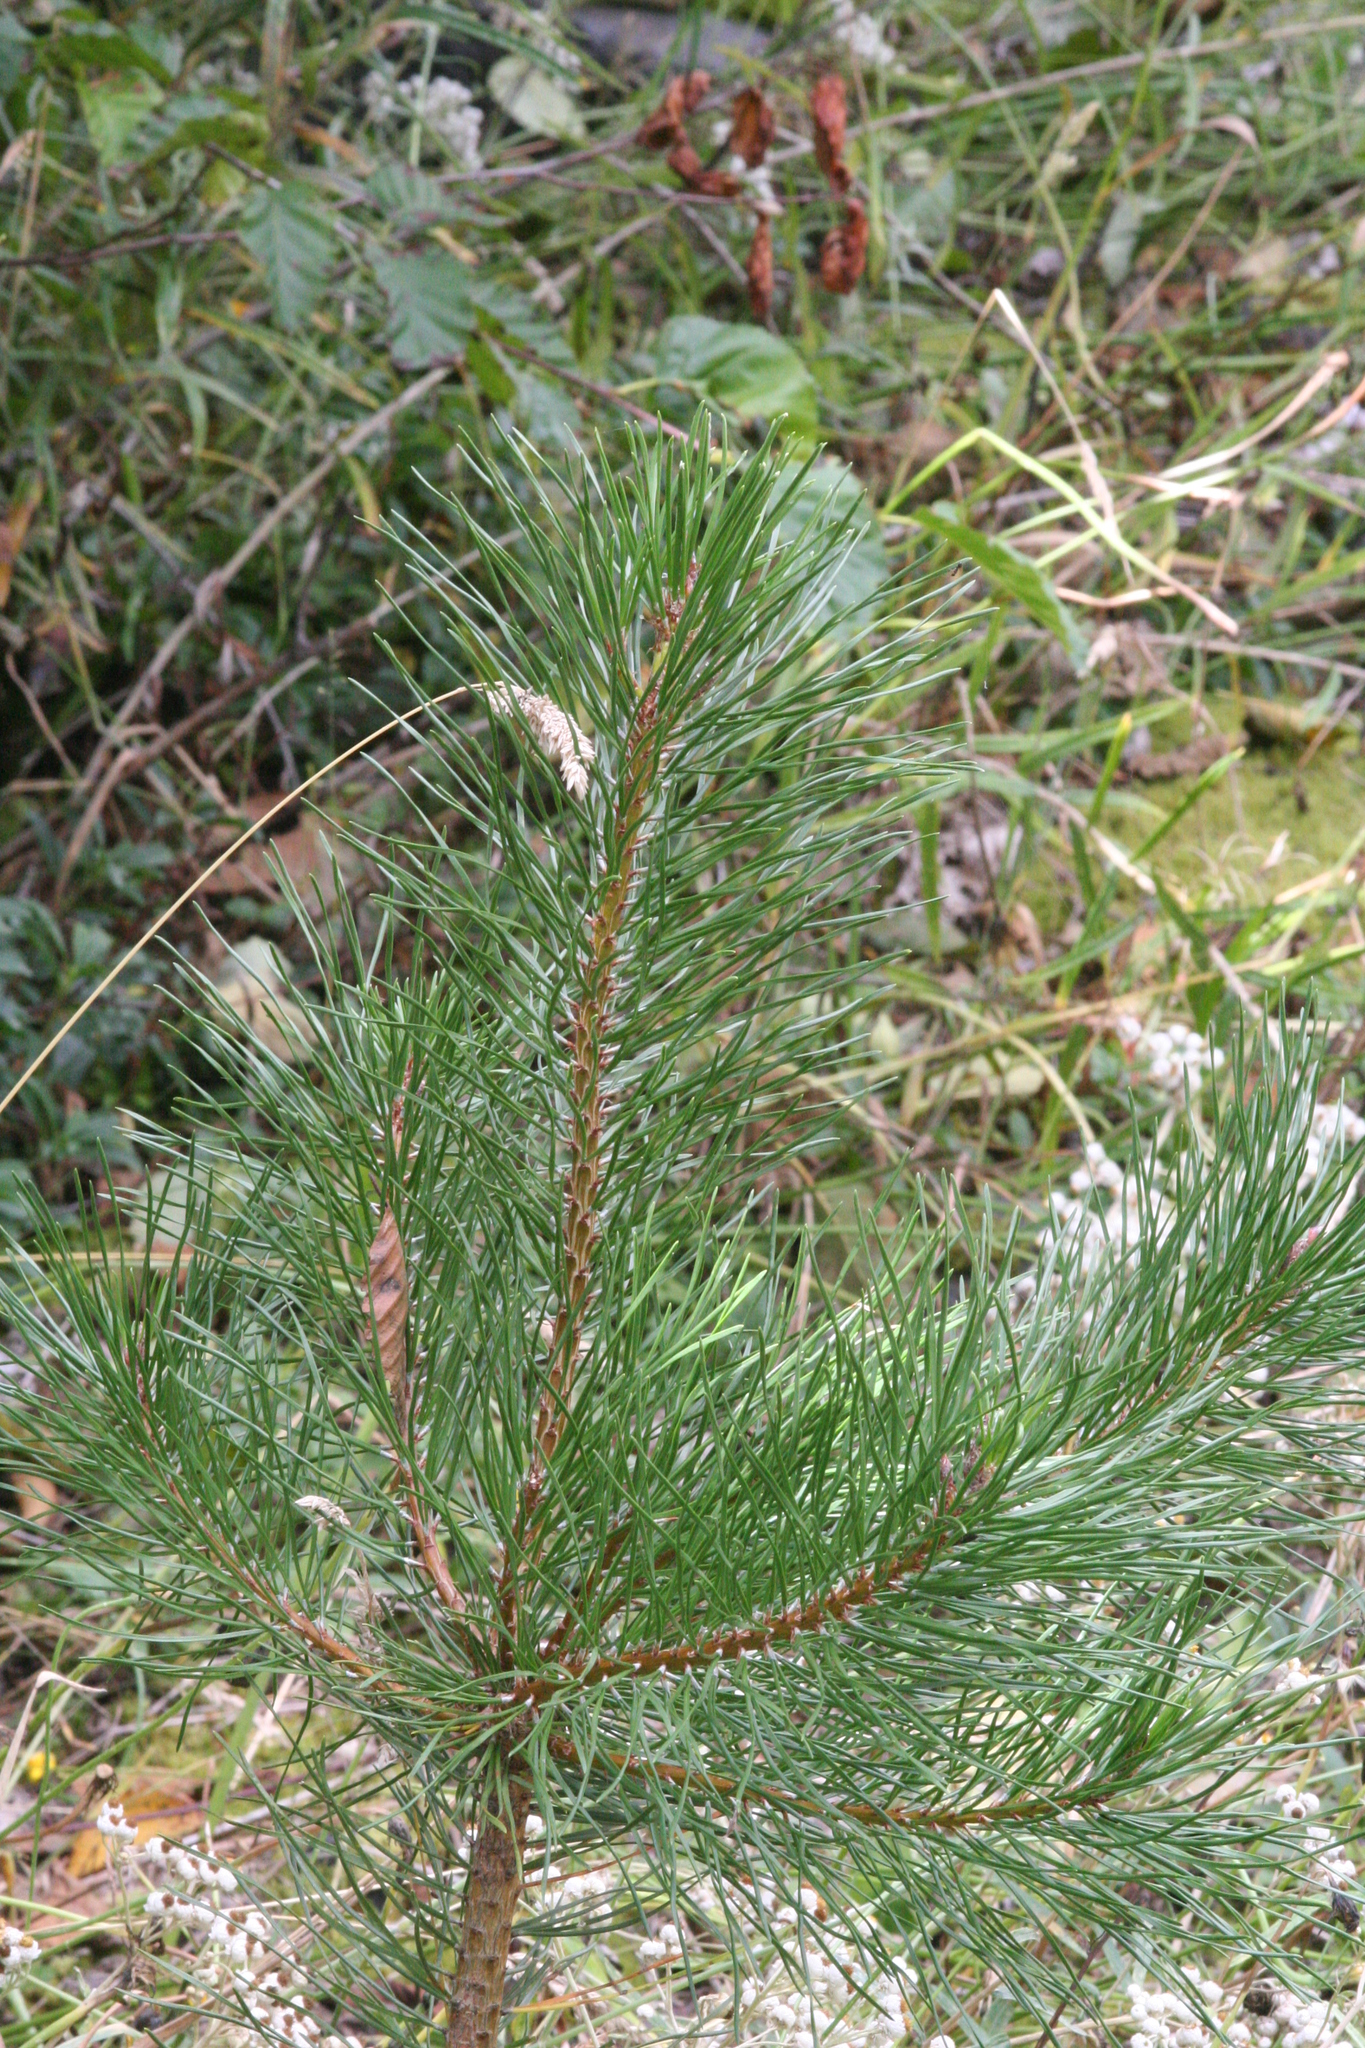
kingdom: Plantae
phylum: Tracheophyta
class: Pinopsida
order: Pinales
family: Pinaceae
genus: Pinus
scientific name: Pinus contorta
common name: Lodgepole pine
